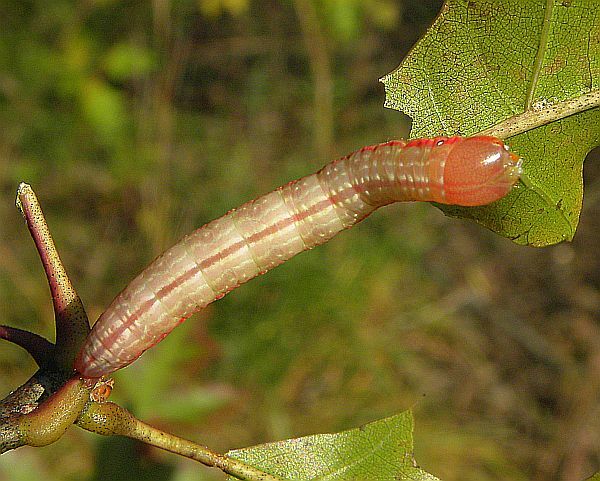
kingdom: Animalia
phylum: Arthropoda
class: Insecta
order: Lepidoptera
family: Notodontidae
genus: Peridea
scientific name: Peridea angulosa
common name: Angulose prominent
